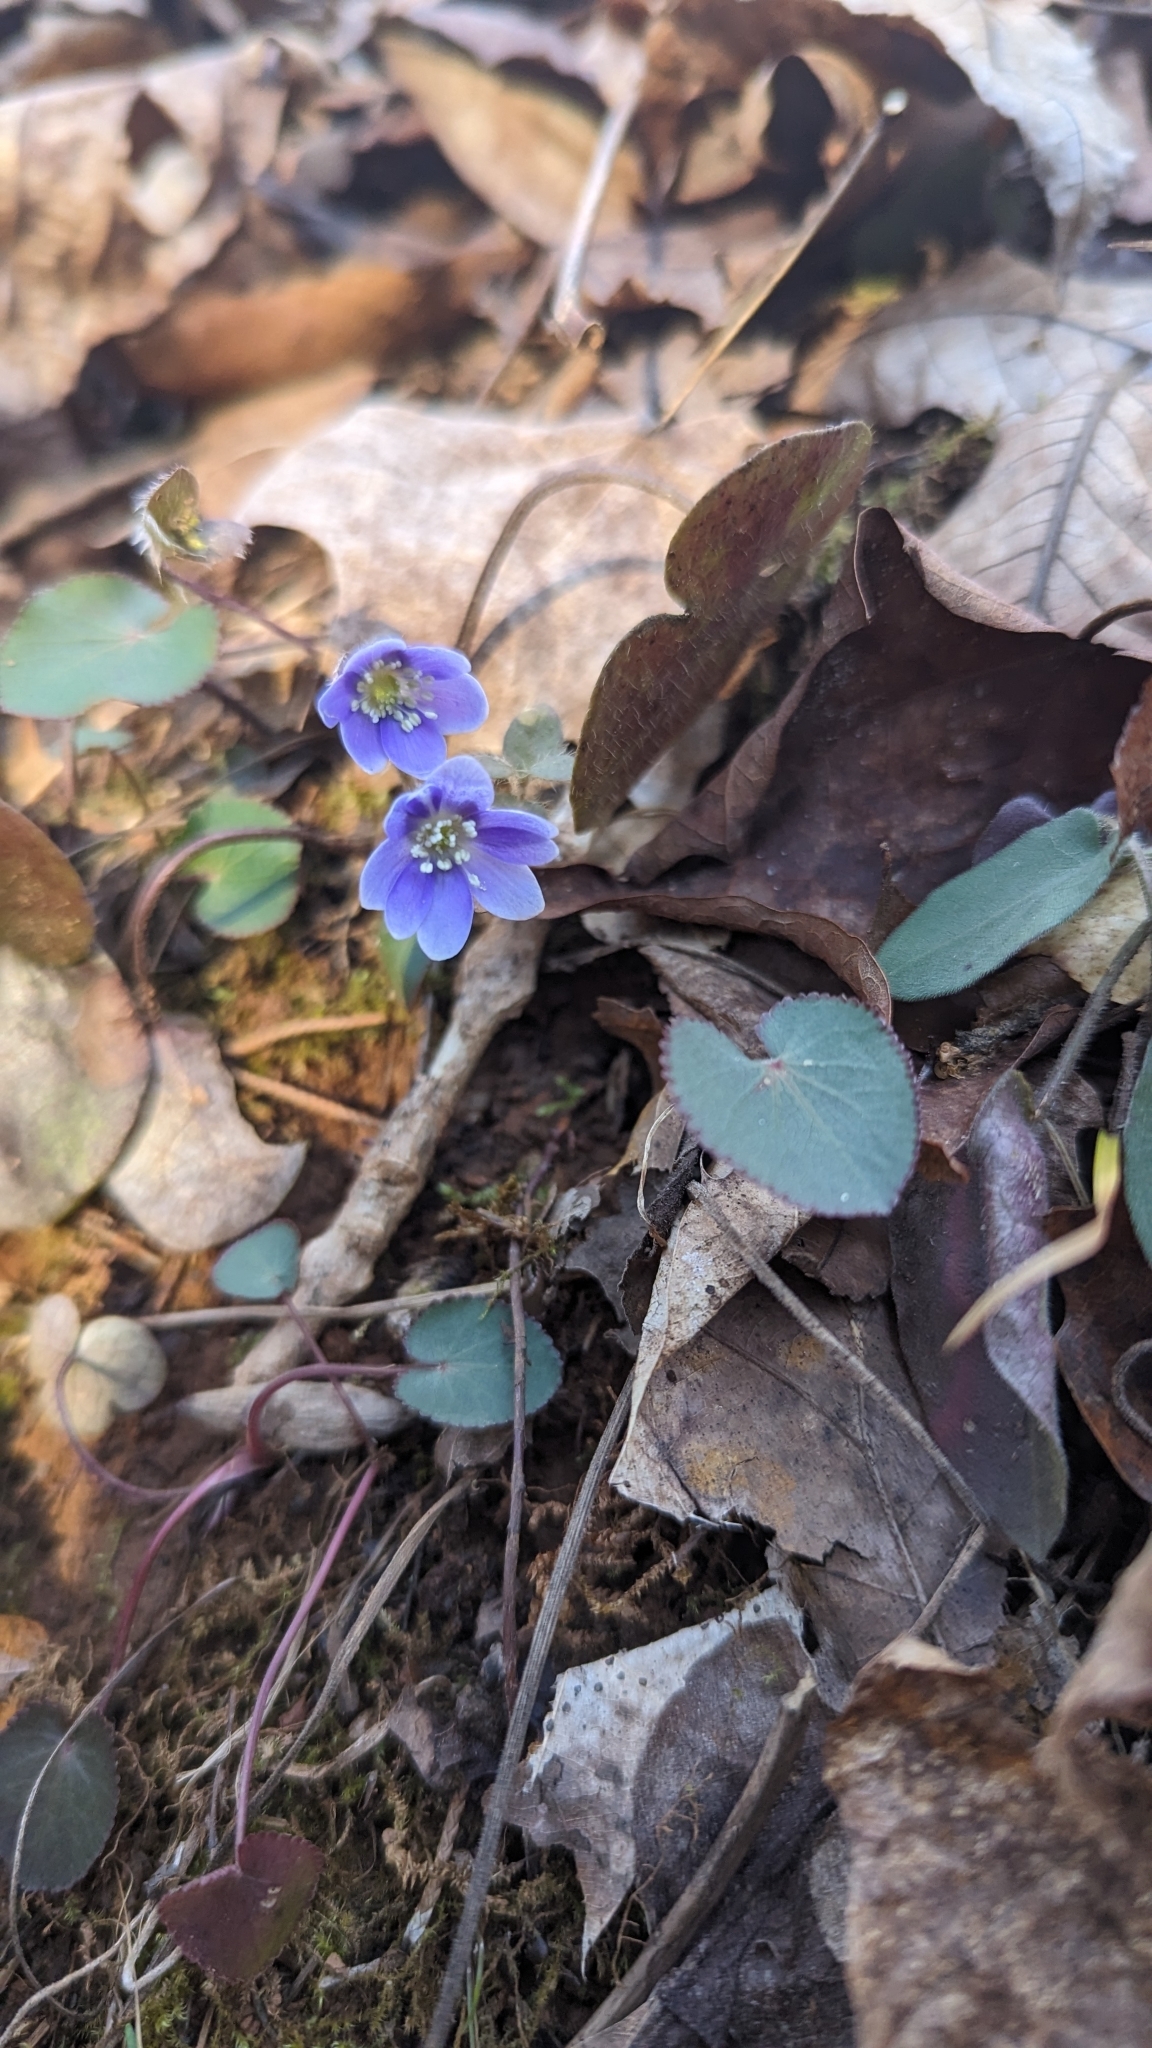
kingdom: Plantae
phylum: Tracheophyta
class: Magnoliopsida
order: Ranunculales
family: Ranunculaceae
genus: Hepatica
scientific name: Hepatica americana
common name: American hepatica
